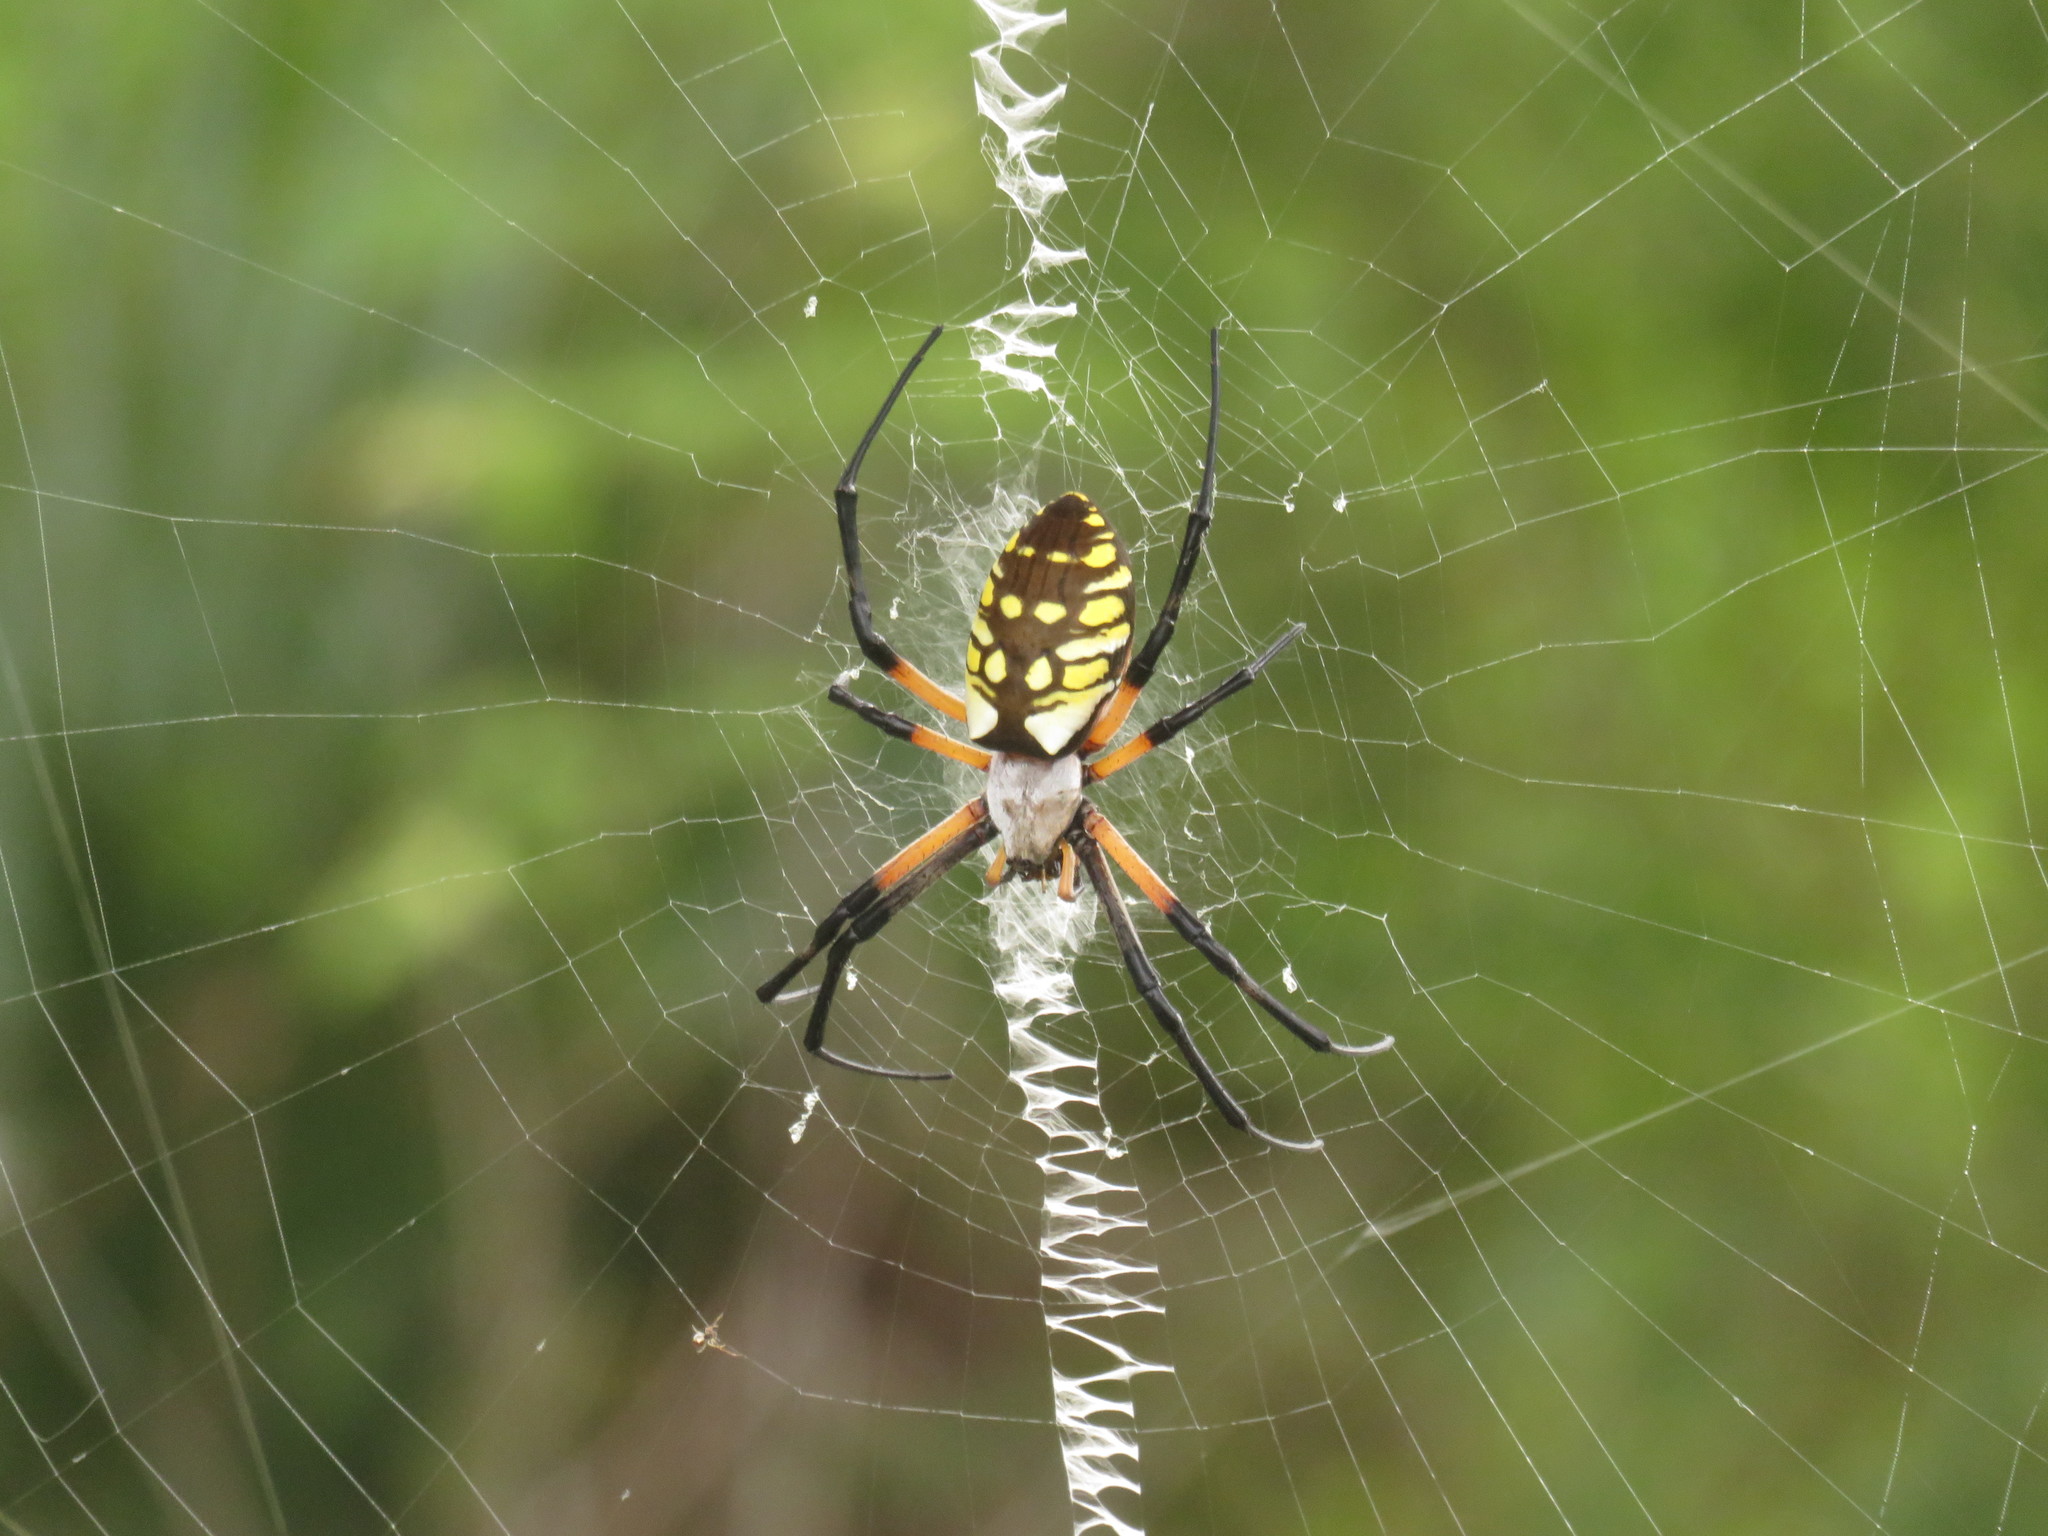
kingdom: Animalia
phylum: Arthropoda
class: Arachnida
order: Araneae
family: Araneidae
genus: Argiope
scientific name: Argiope aurantia
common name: Orb weavers
